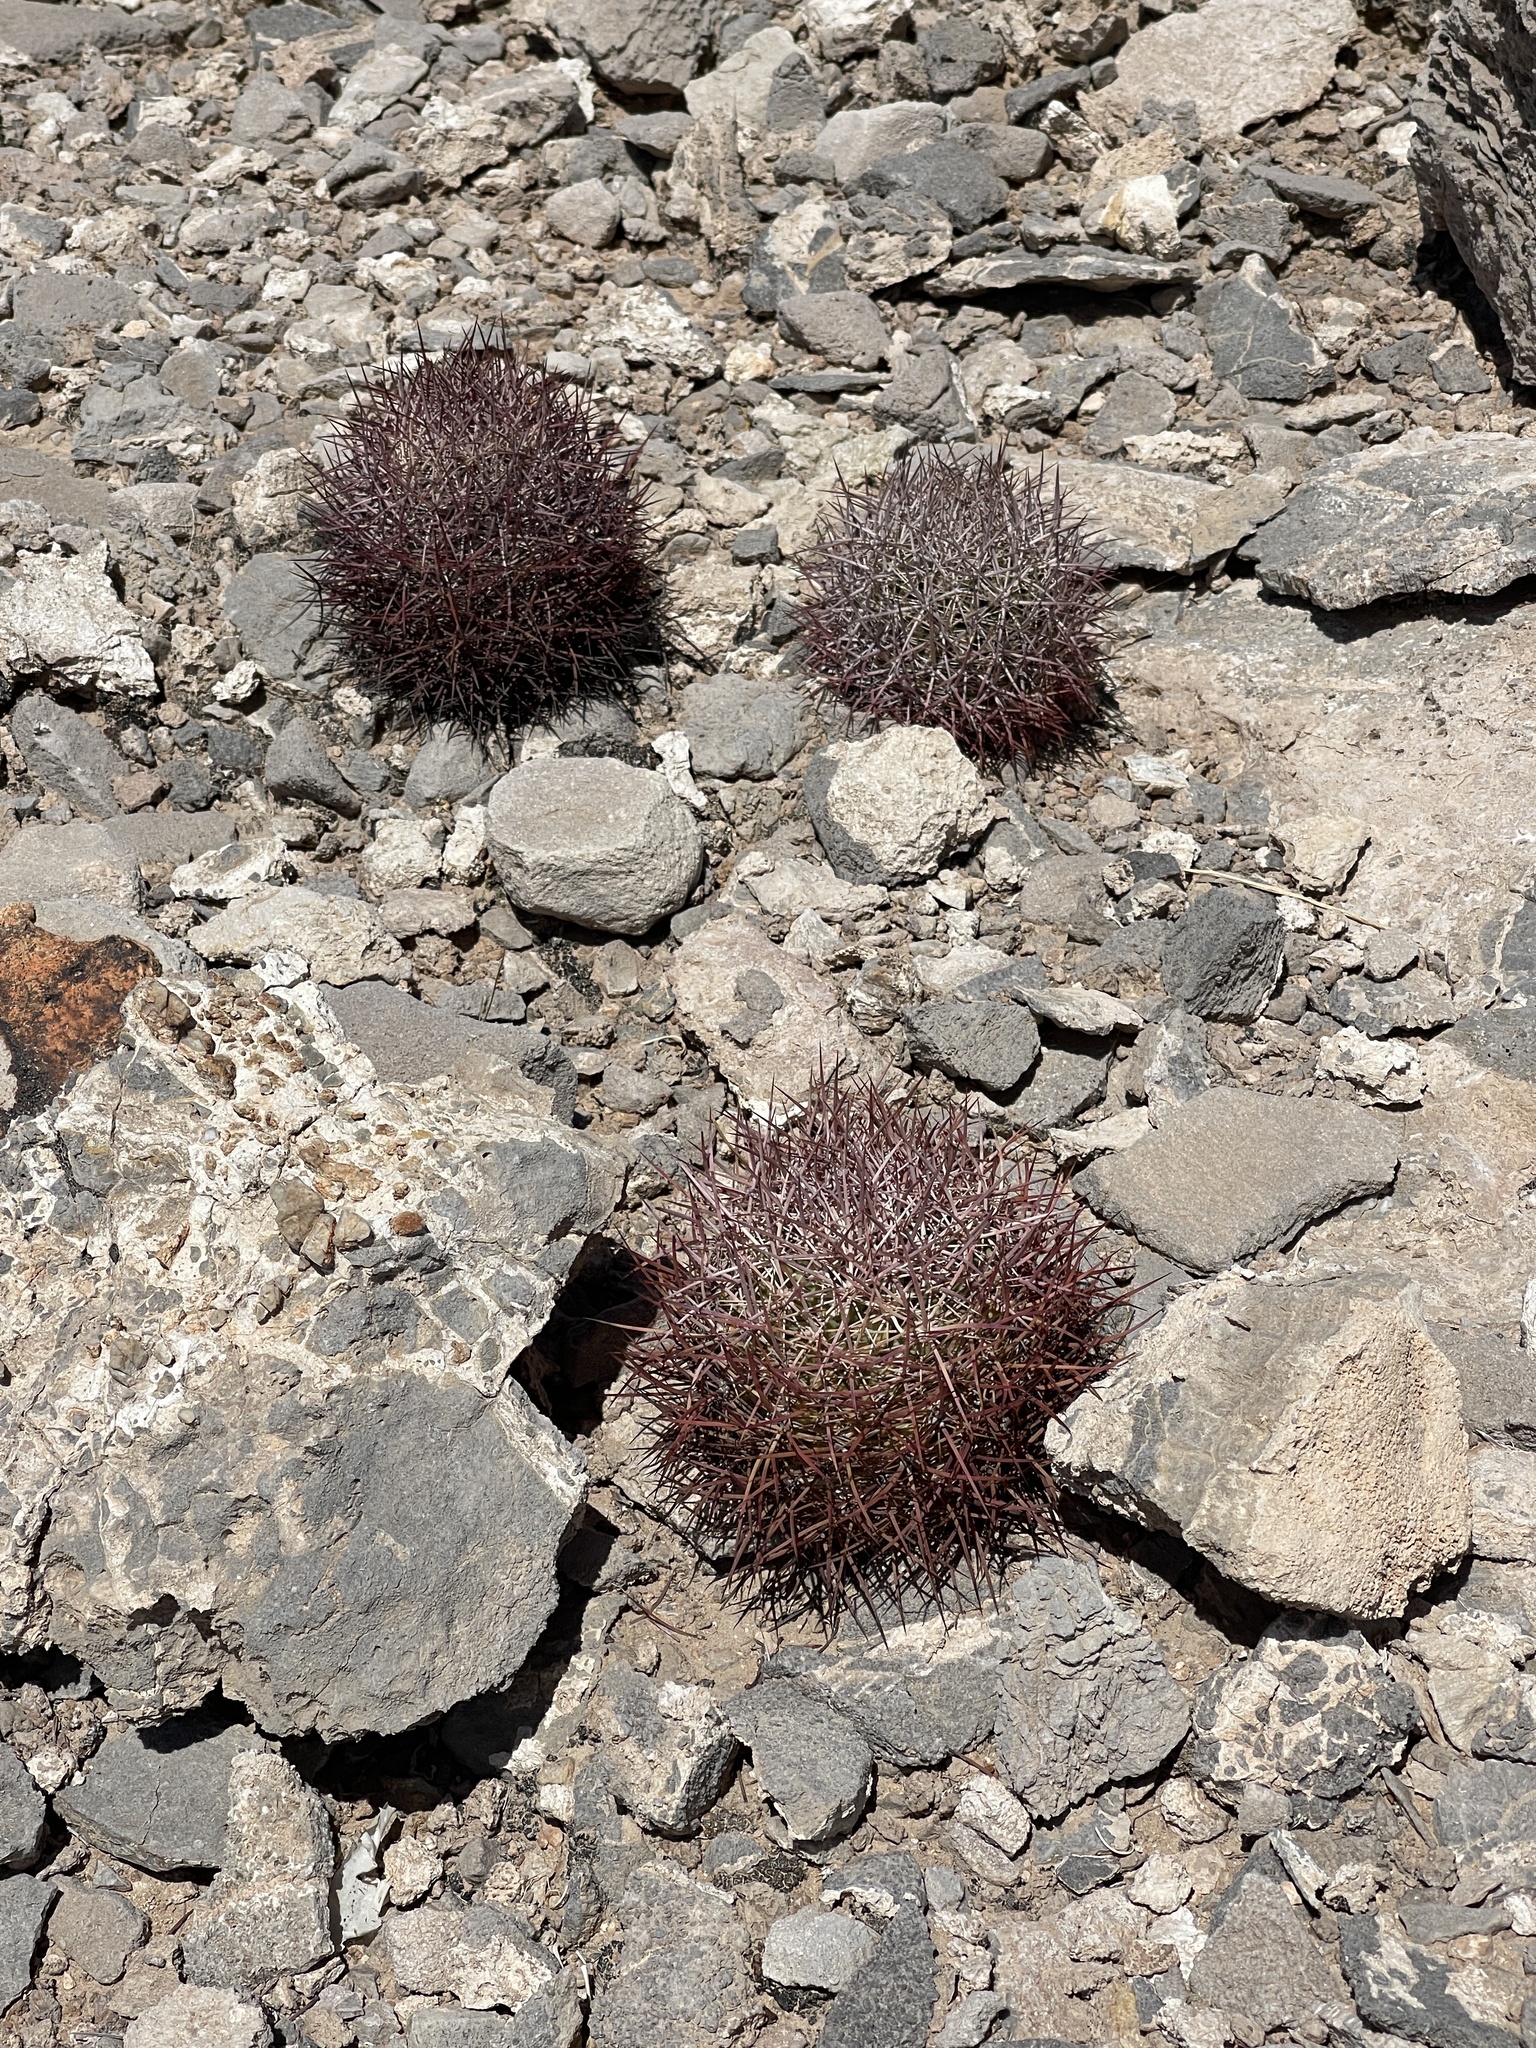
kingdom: Plantae
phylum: Tracheophyta
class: Magnoliopsida
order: Caryophyllales
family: Cactaceae
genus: Sclerocactus
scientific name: Sclerocactus johnsonii
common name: Eight-spine fishhook cactus
